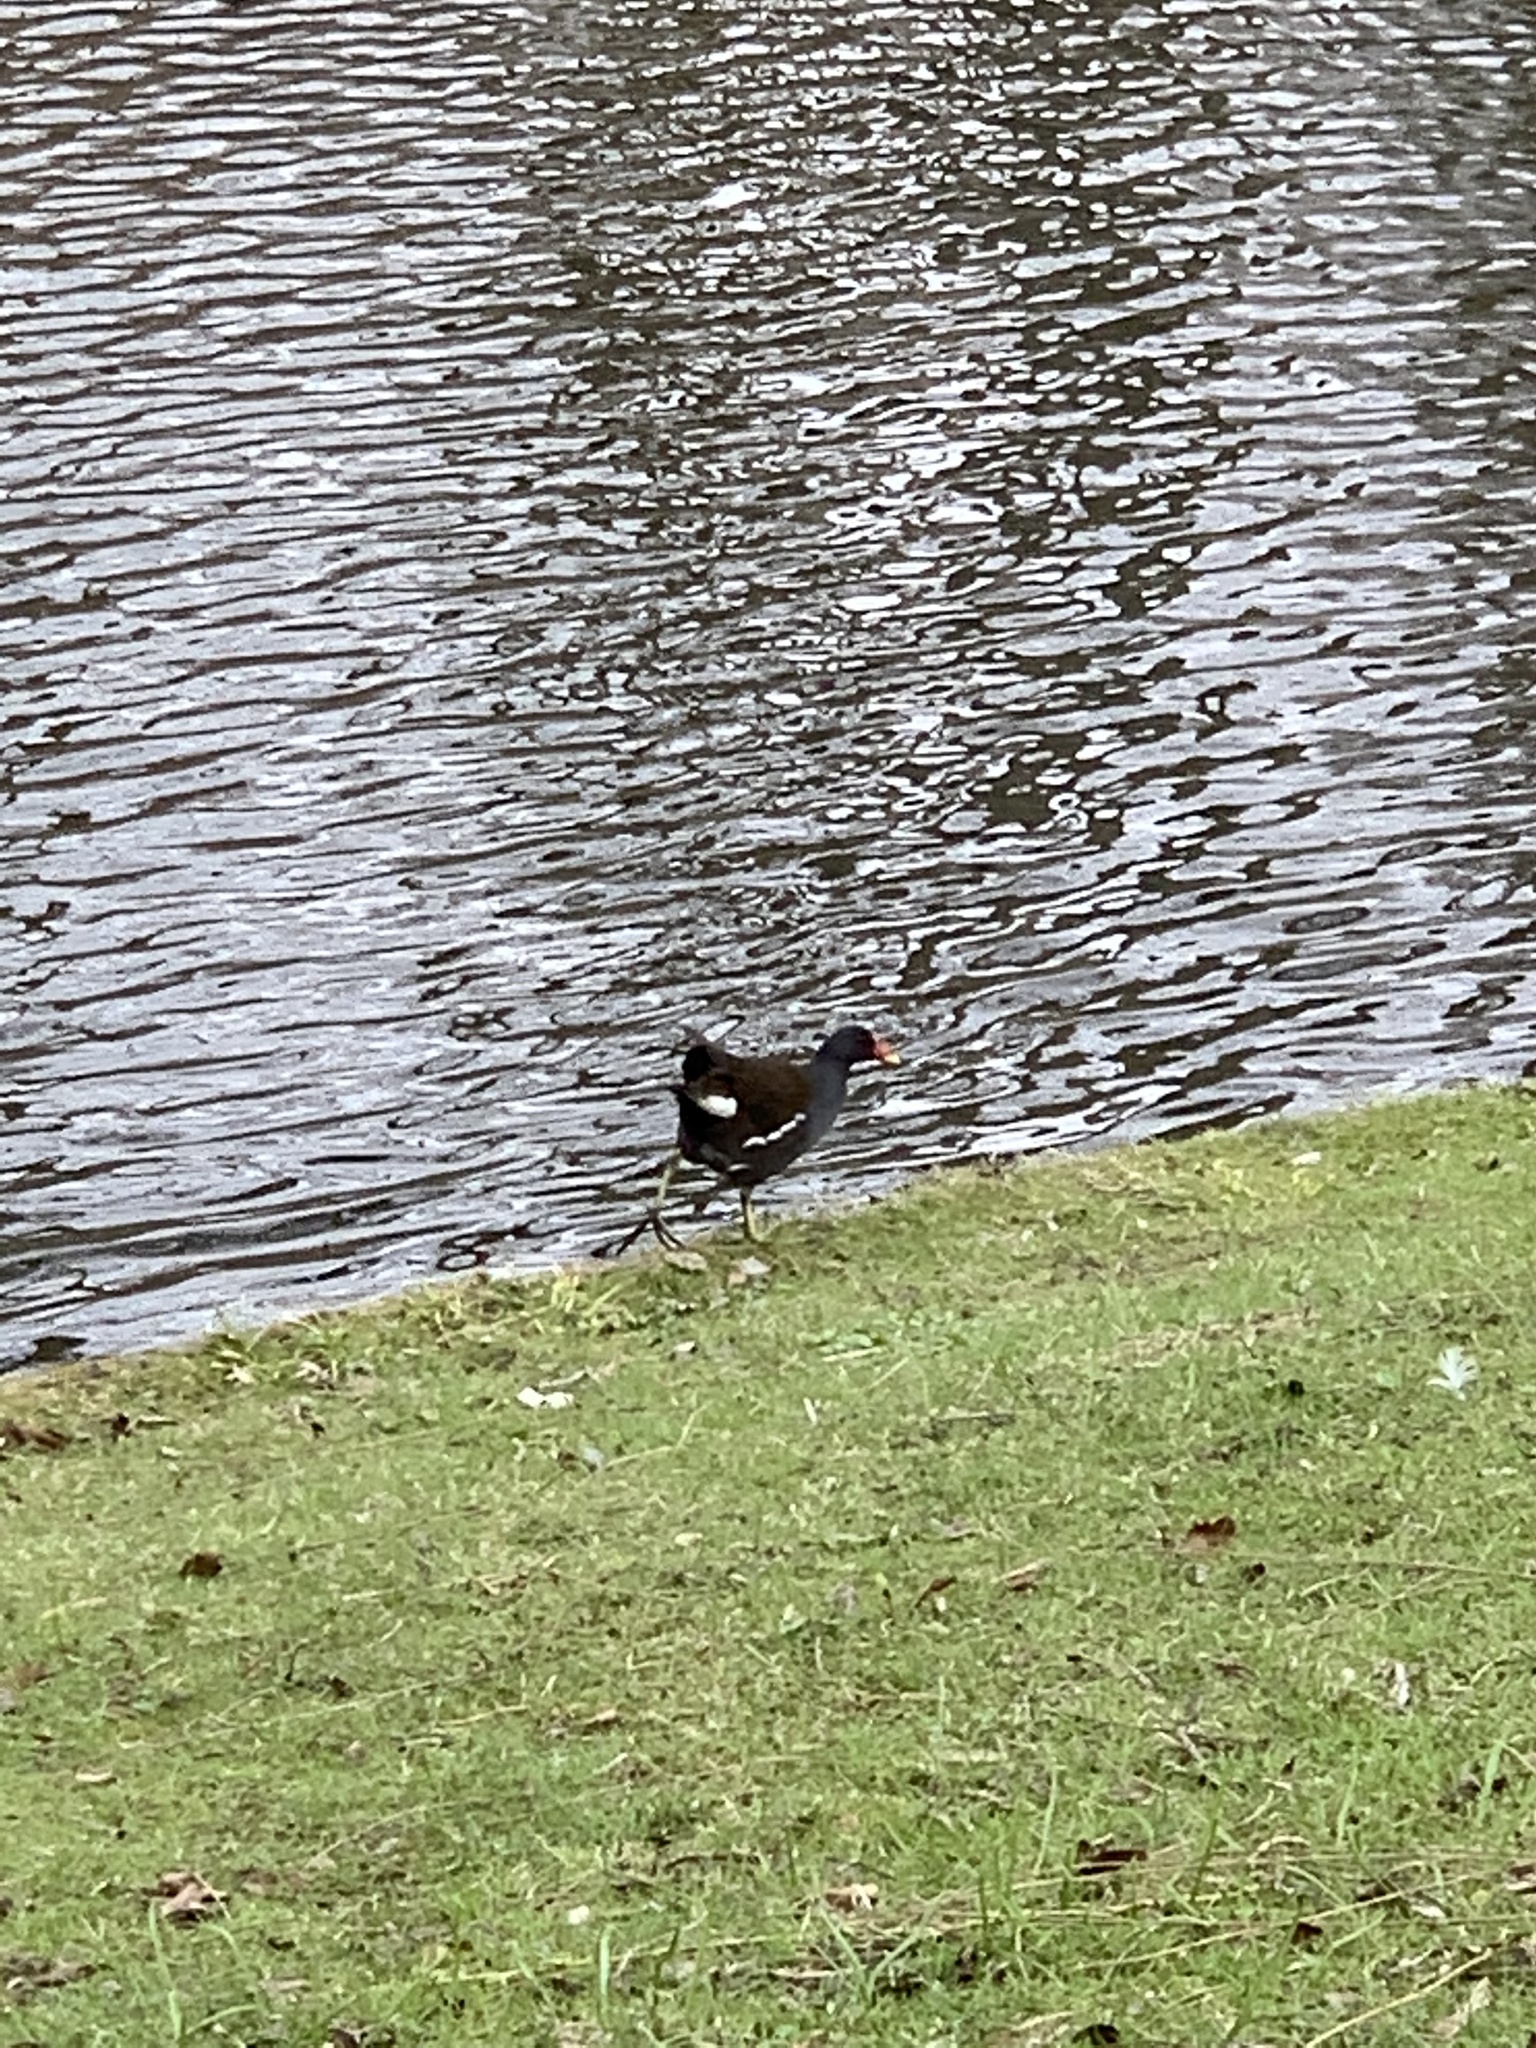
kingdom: Animalia
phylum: Chordata
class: Aves
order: Gruiformes
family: Rallidae
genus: Gallinula
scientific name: Gallinula chloropus
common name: Common moorhen
